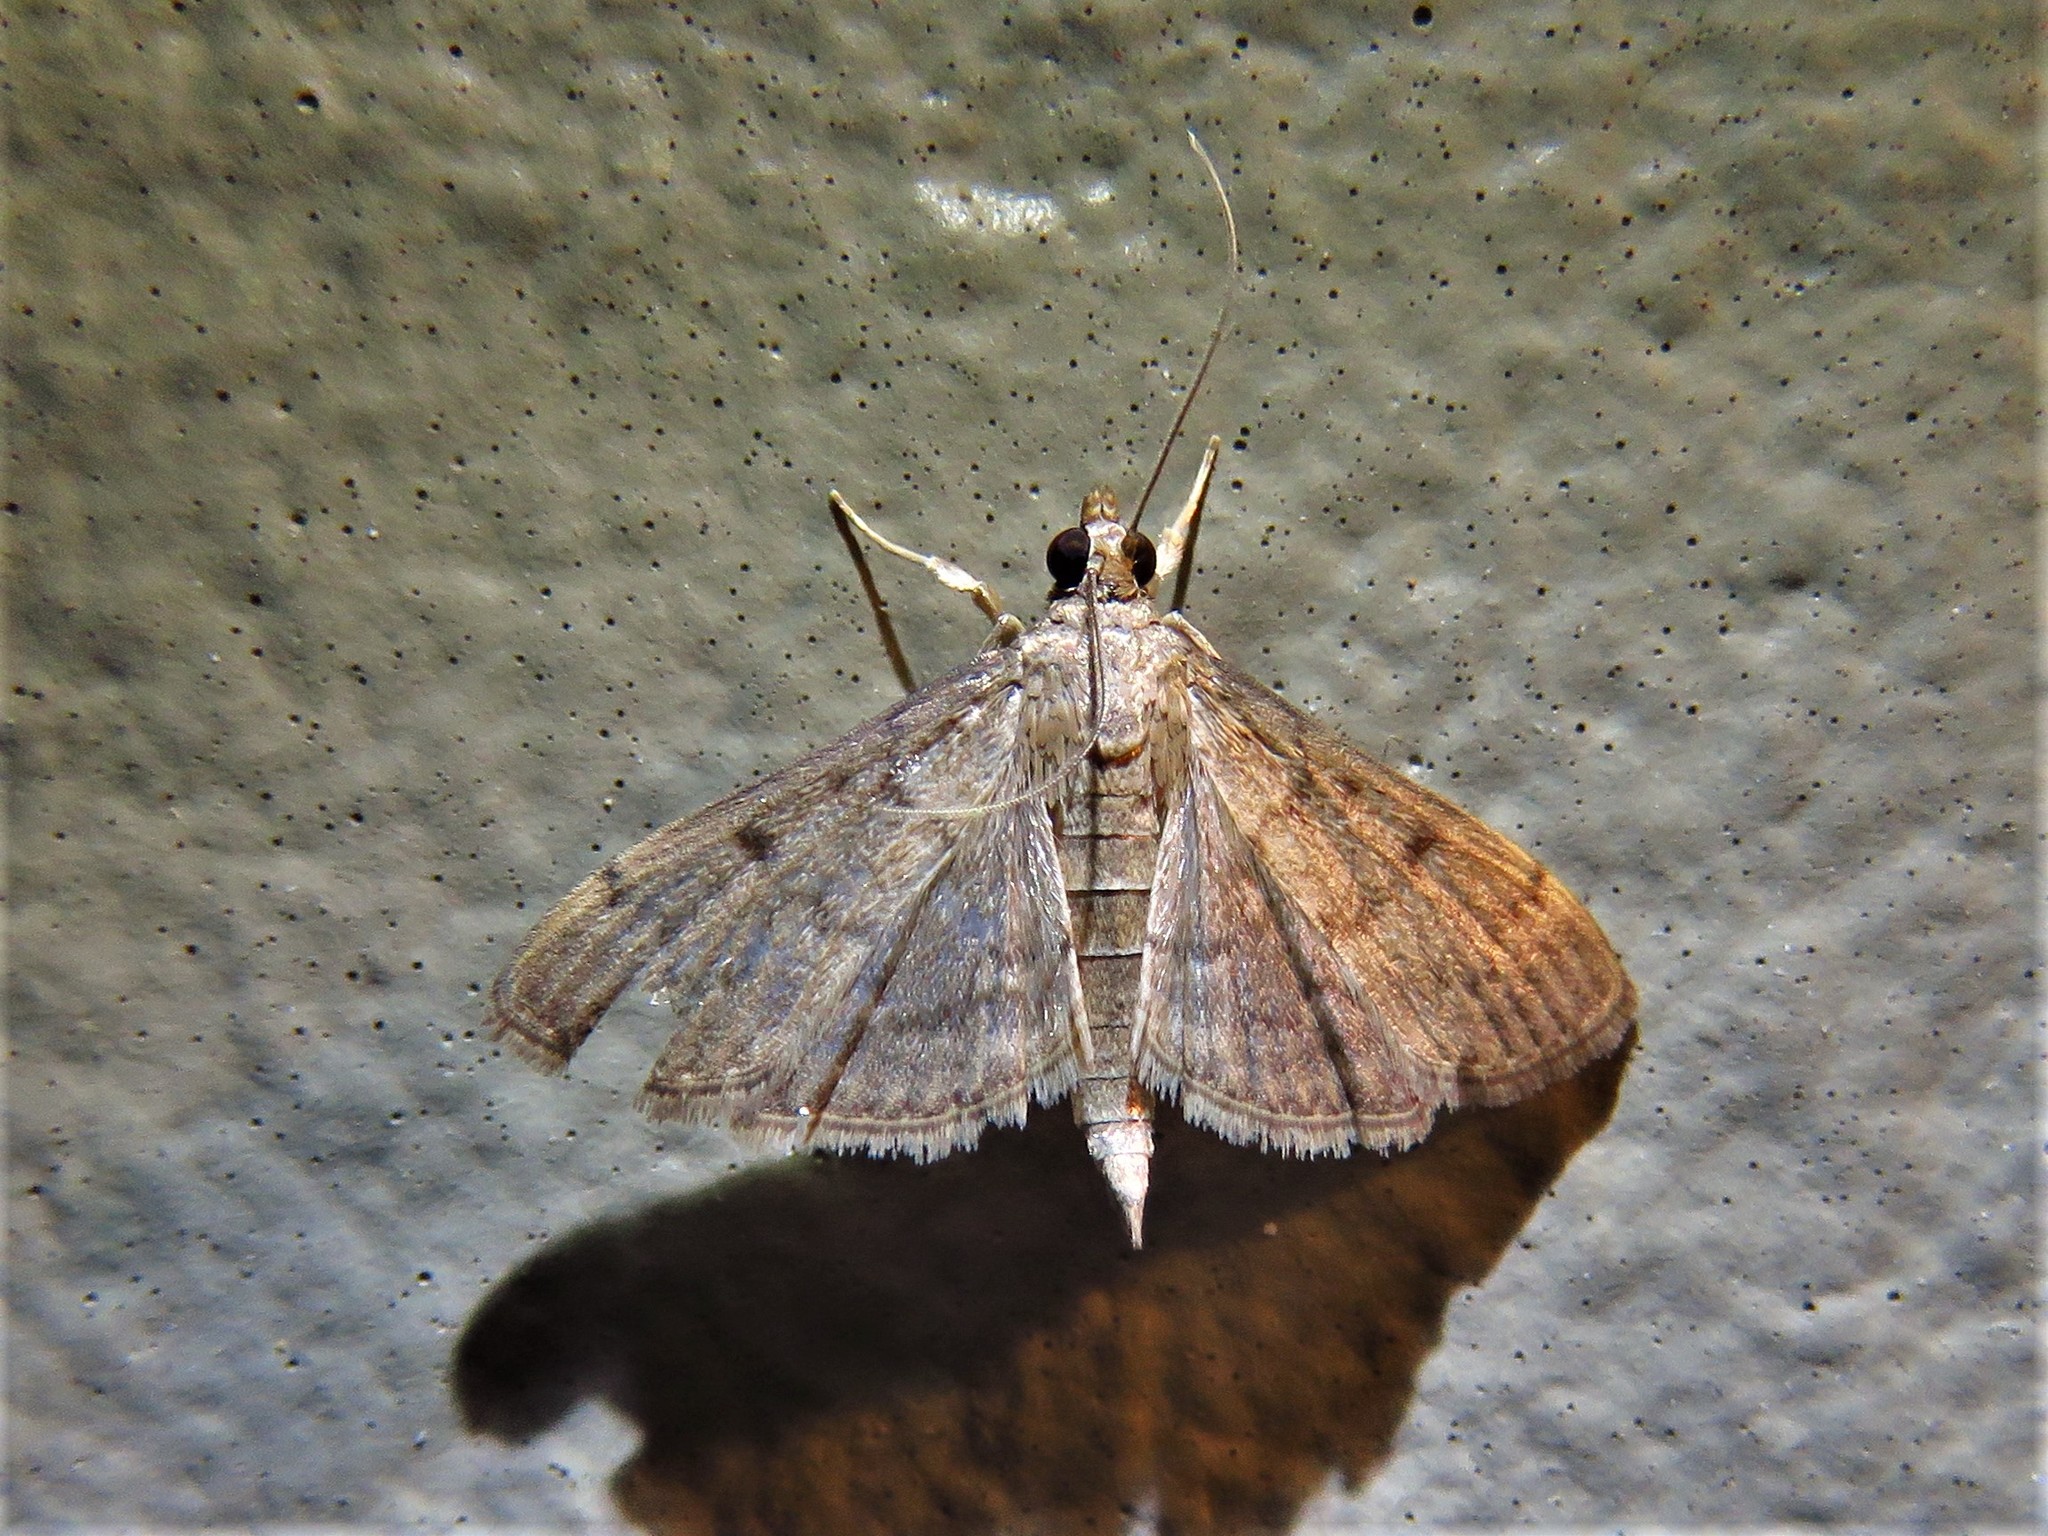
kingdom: Animalia
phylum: Arthropoda
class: Insecta
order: Lepidoptera
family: Crambidae
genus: Herpetogramma
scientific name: Herpetogramma phaeopteralis
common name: Dusky herpetogramma moth
